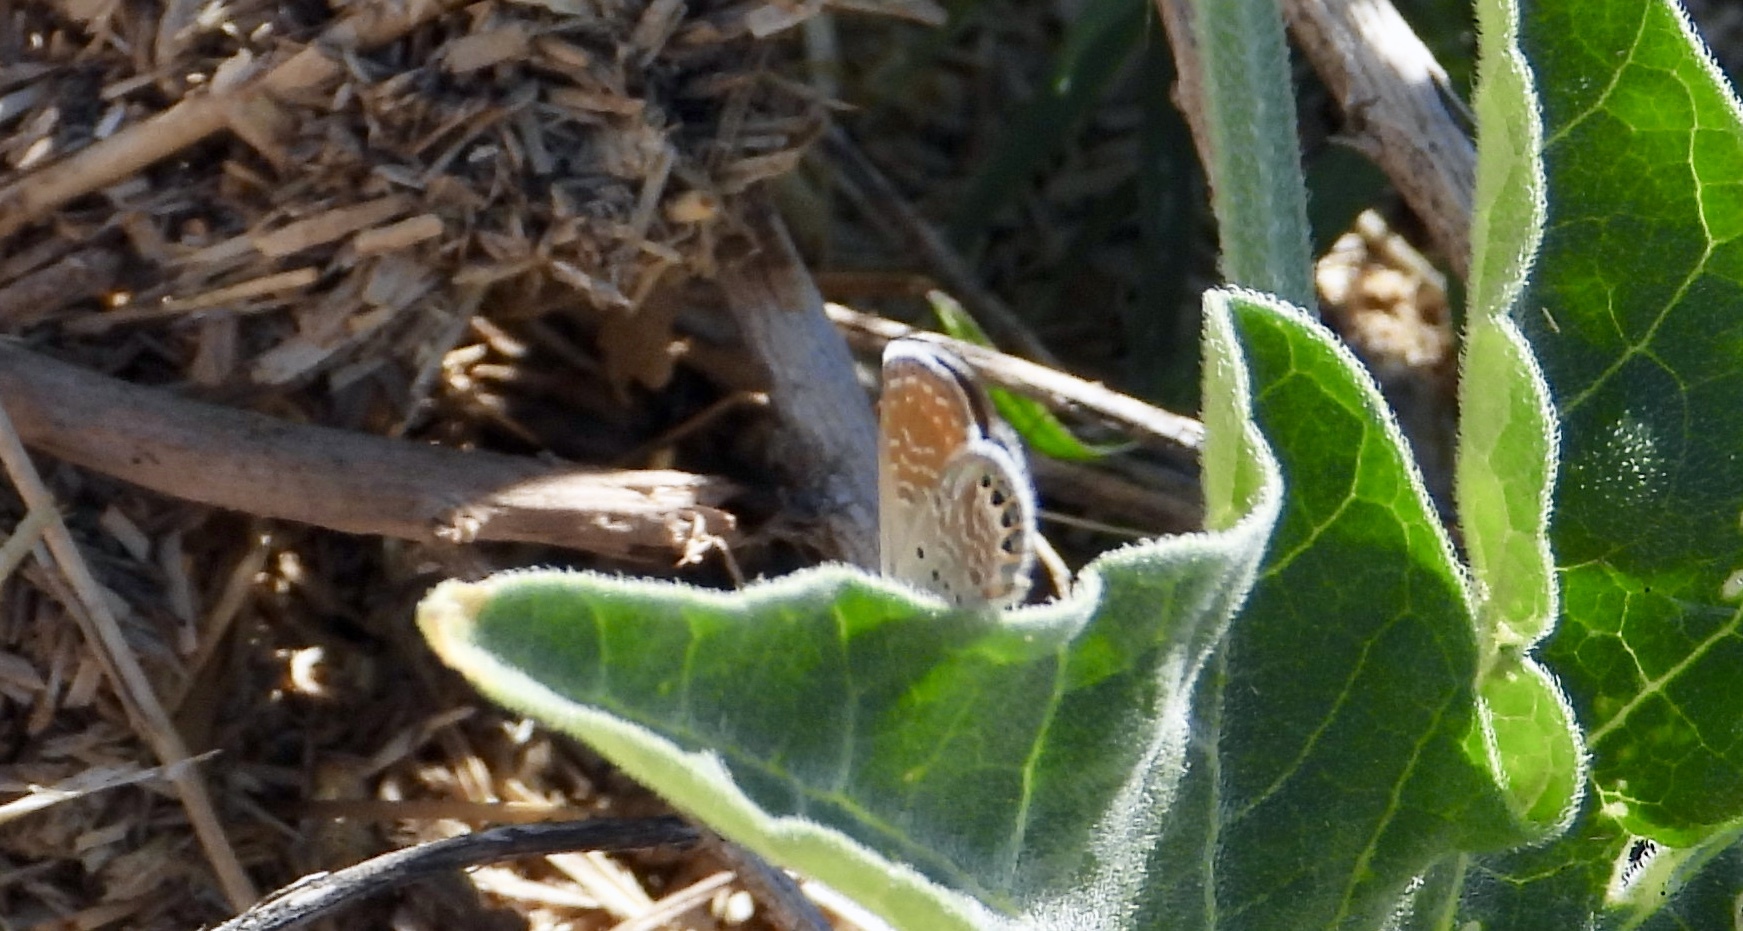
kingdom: Animalia
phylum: Arthropoda
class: Insecta
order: Lepidoptera
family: Lycaenidae
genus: Brephidium
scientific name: Brephidium exilis
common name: Pygmy blue
